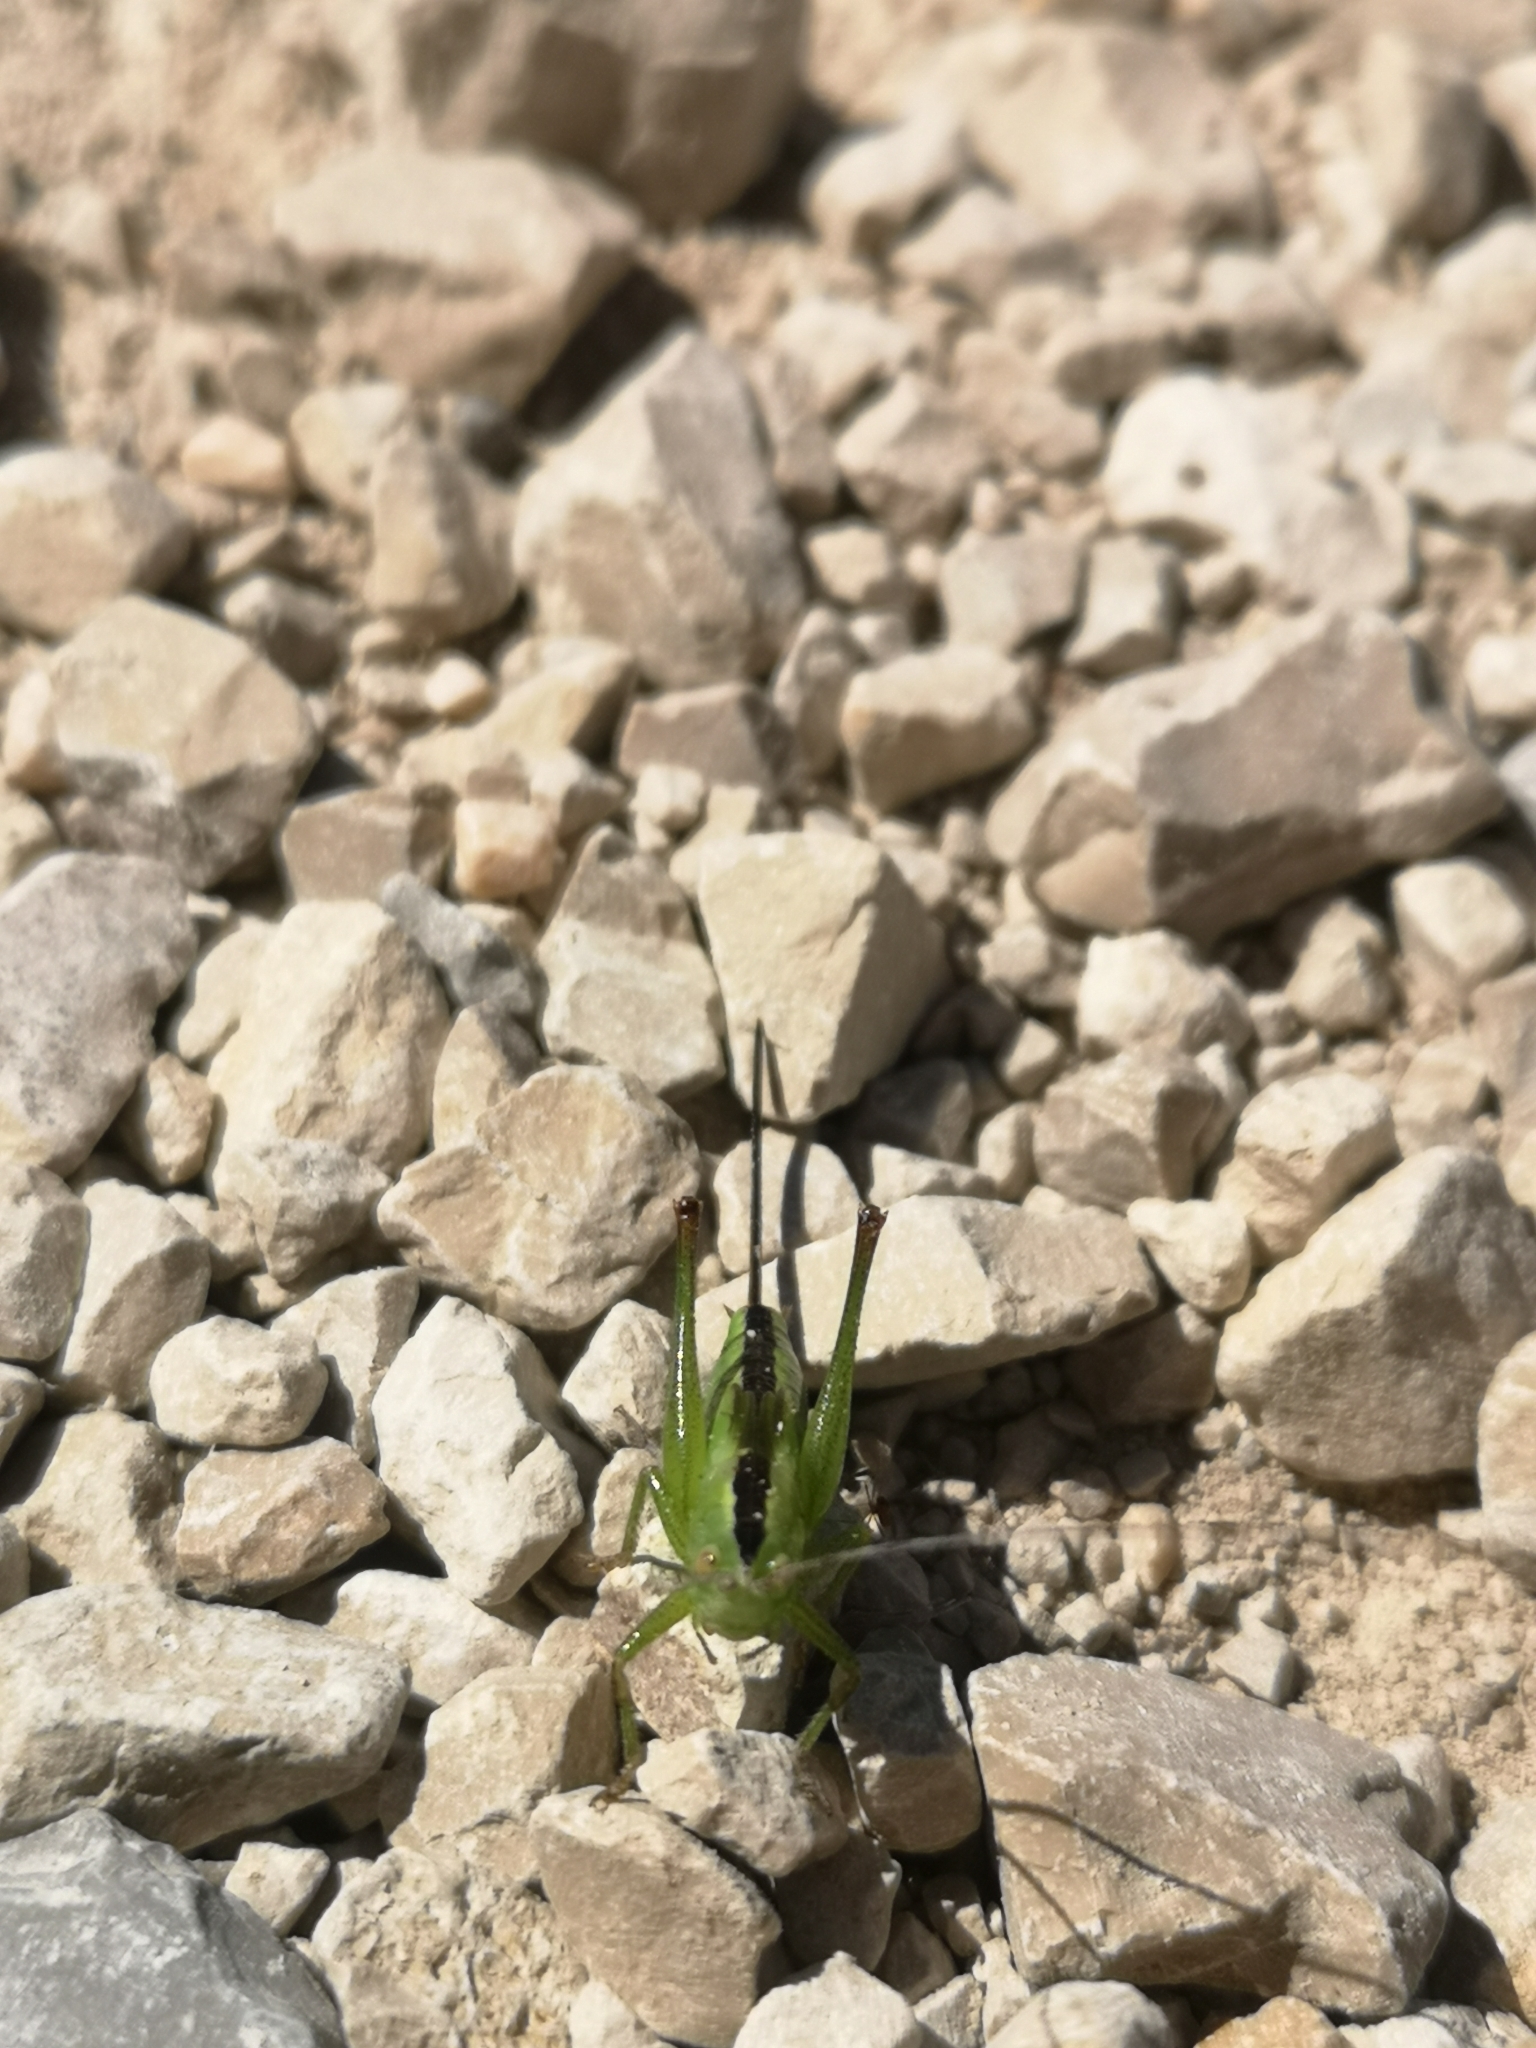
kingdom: Animalia
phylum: Arthropoda
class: Insecta
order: Orthoptera
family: Tettigoniidae
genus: Conocephalus
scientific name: Conocephalus fuscus
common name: Long-winged conehead
